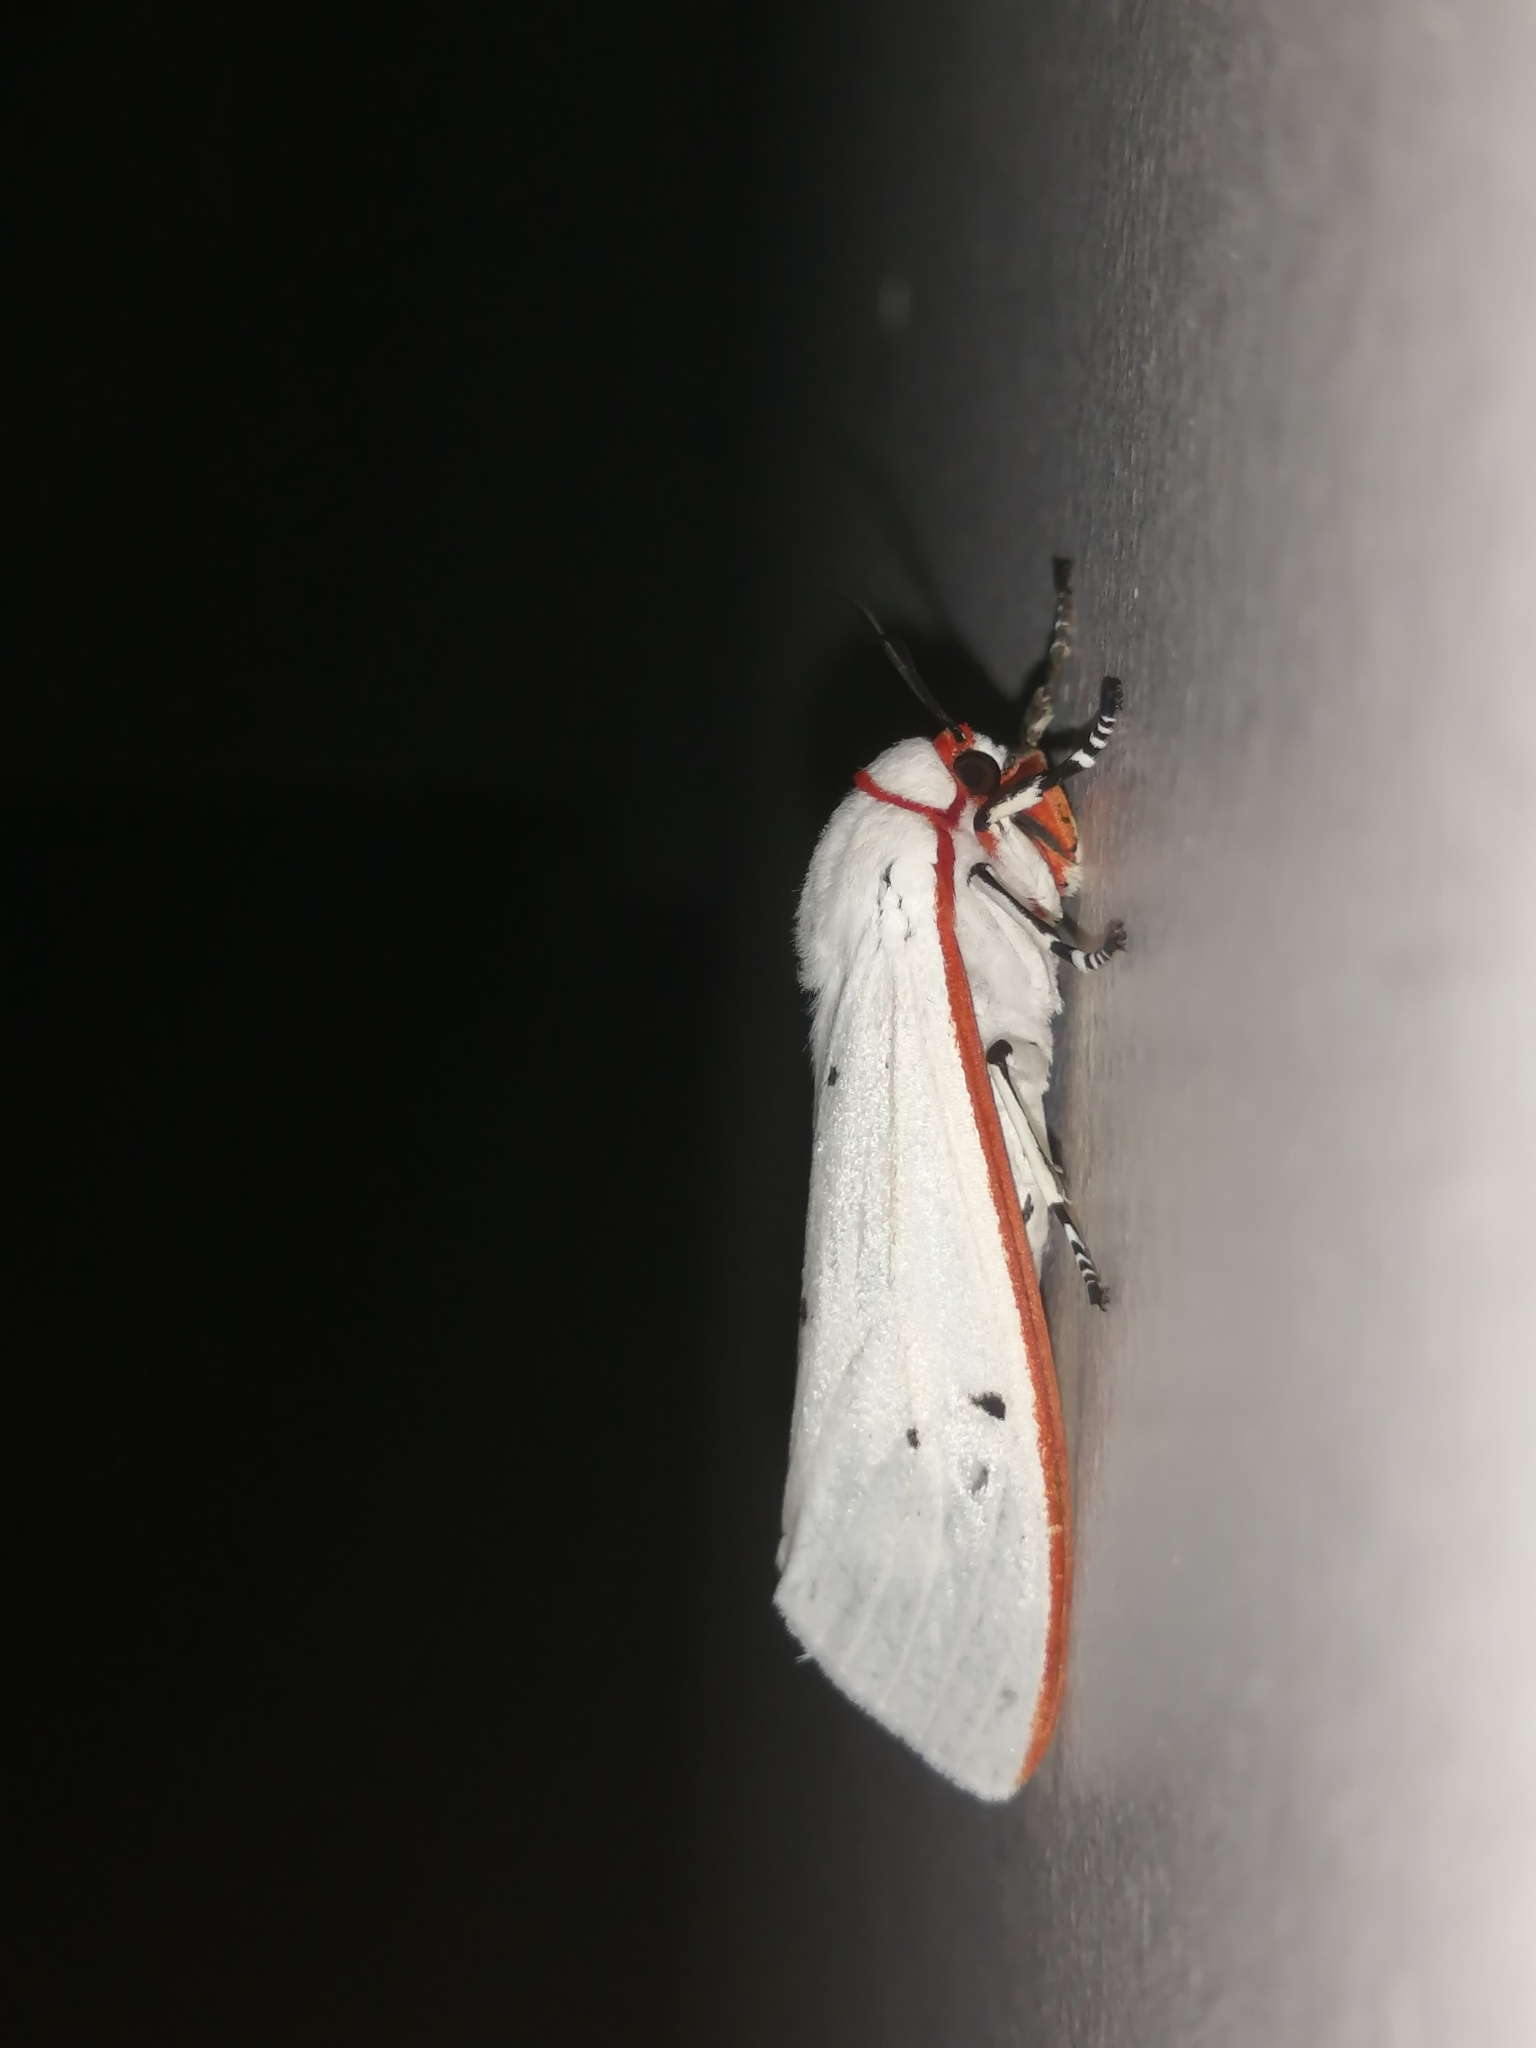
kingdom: Animalia
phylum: Arthropoda
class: Insecta
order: Lepidoptera
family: Erebidae
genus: Aloa
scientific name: Aloa lactinea
